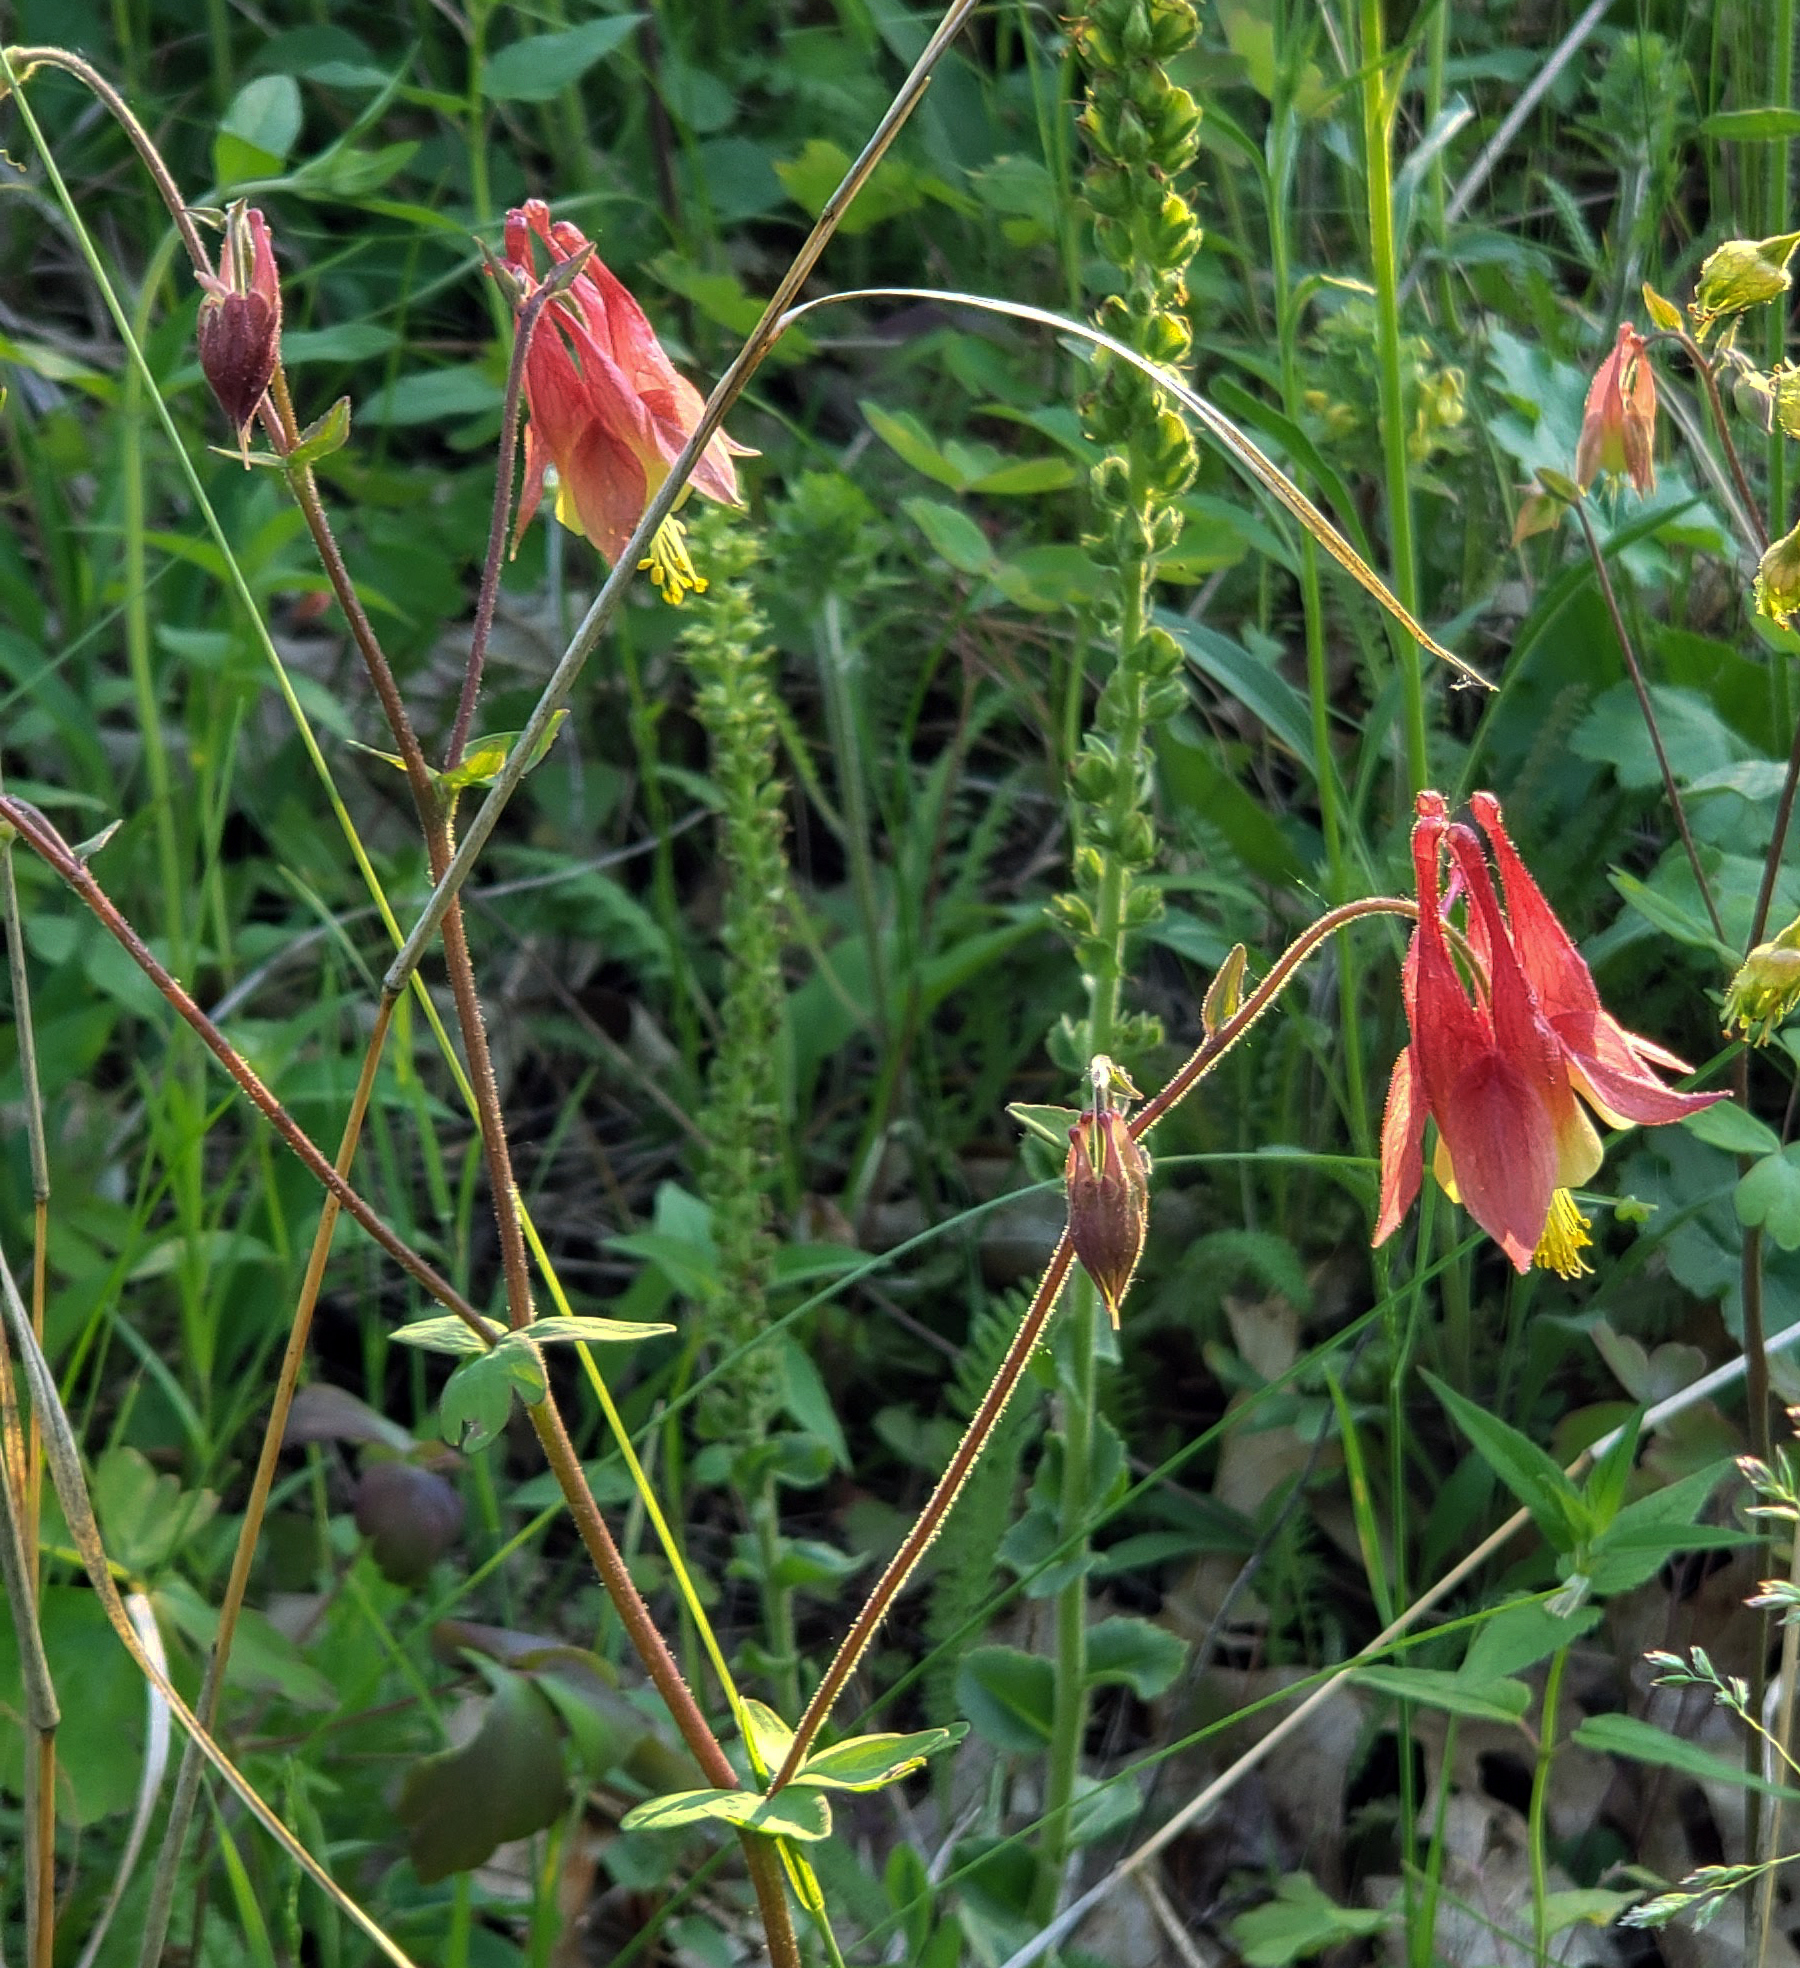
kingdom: Plantae
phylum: Tracheophyta
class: Magnoliopsida
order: Ranunculales
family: Ranunculaceae
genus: Aquilegia
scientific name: Aquilegia canadensis
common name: American columbine
